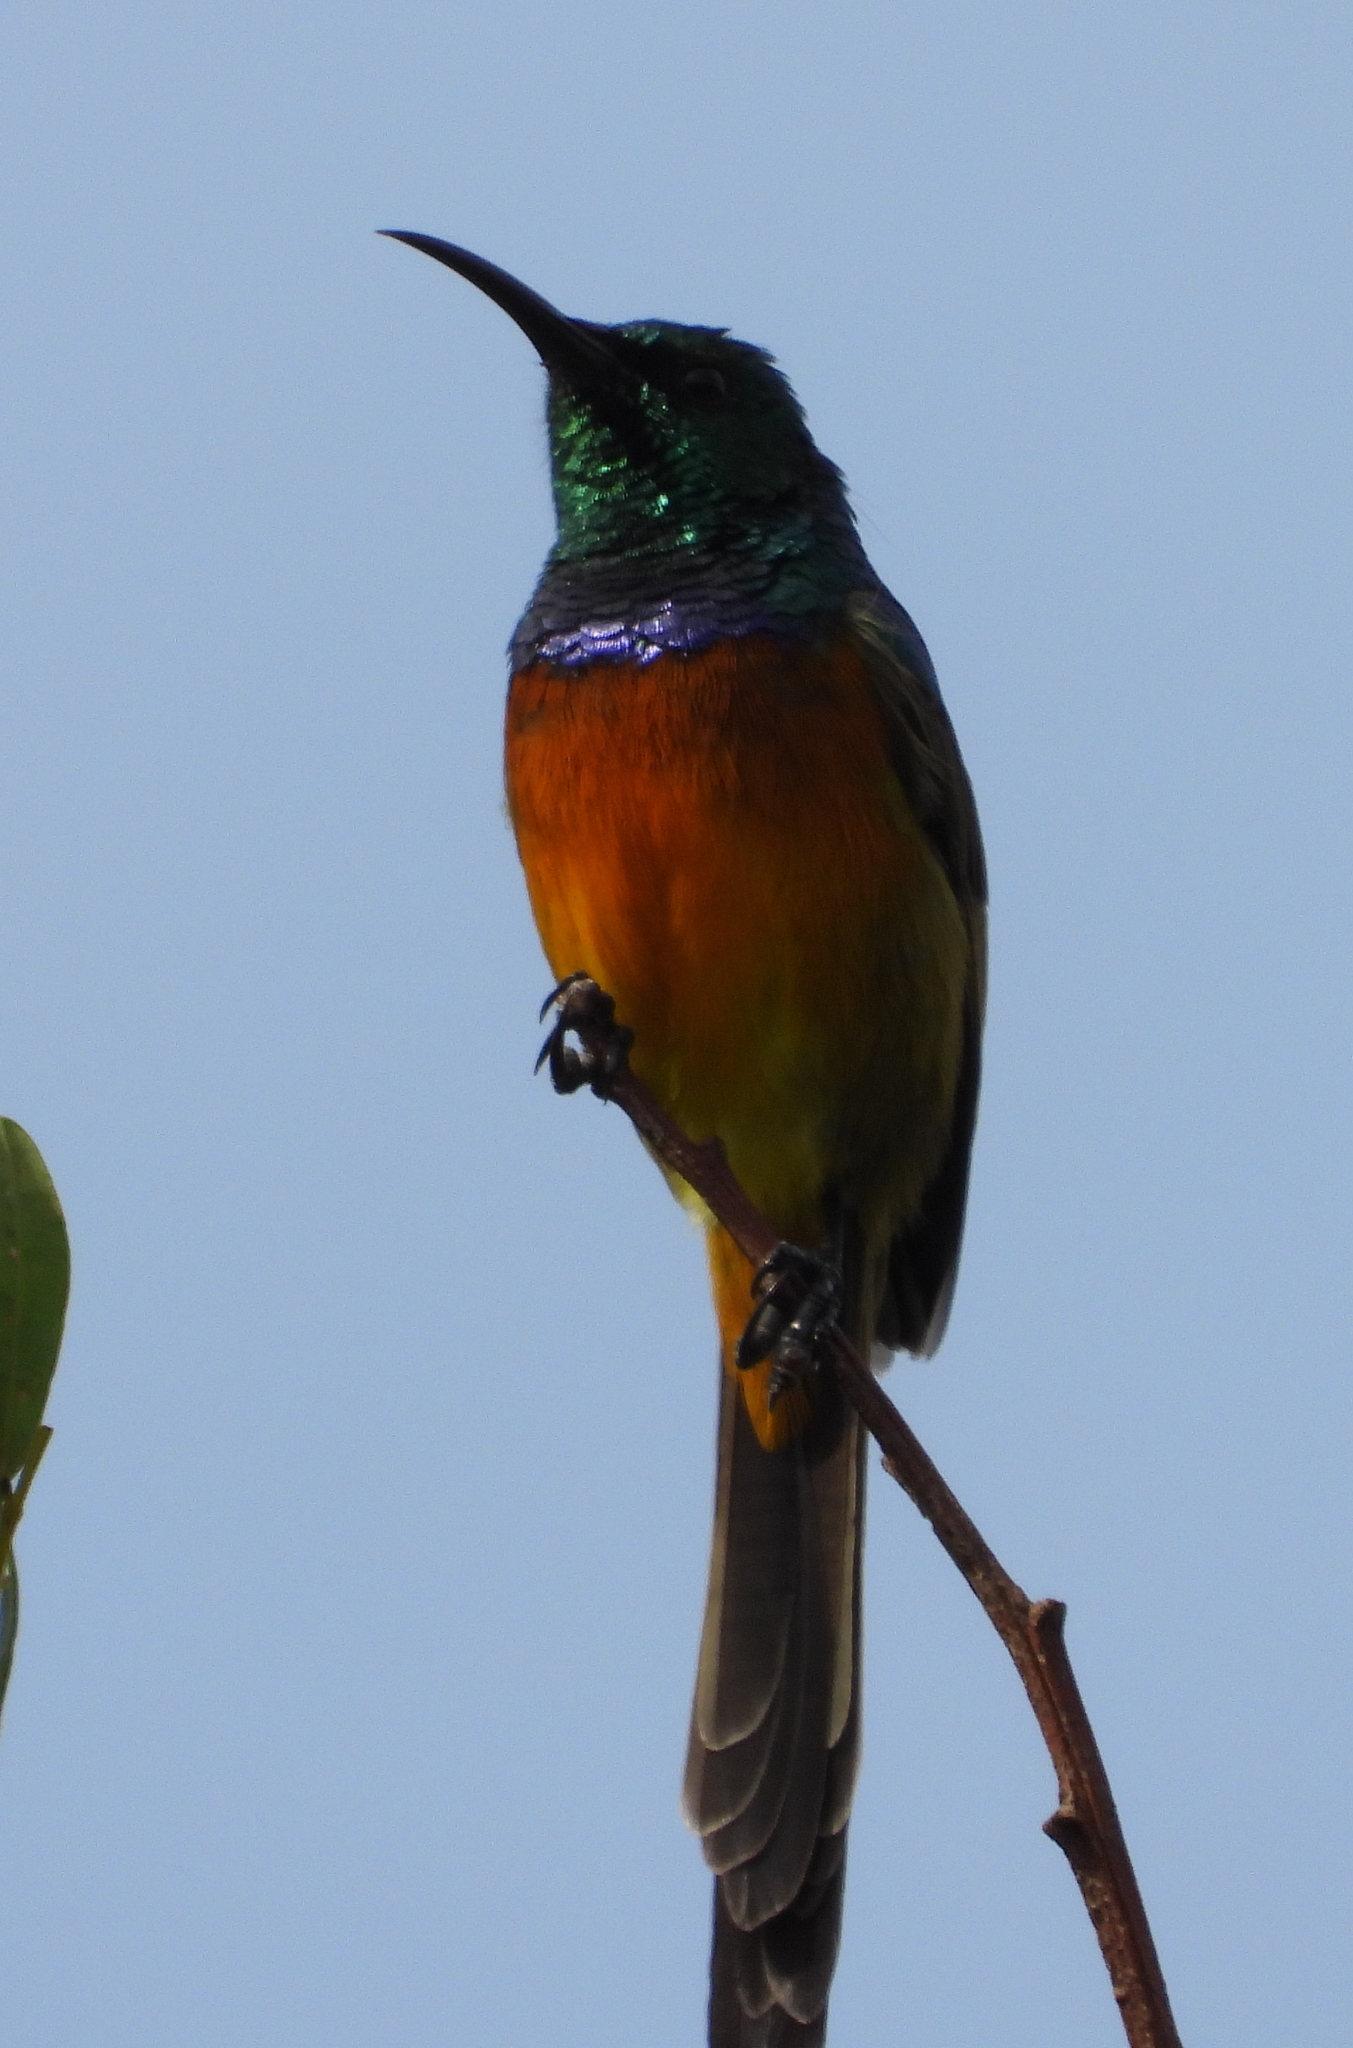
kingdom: Animalia
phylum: Chordata
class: Aves
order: Passeriformes
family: Nectariniidae
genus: Anthobaphes
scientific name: Anthobaphes violacea
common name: Orange-breasted sunbird
